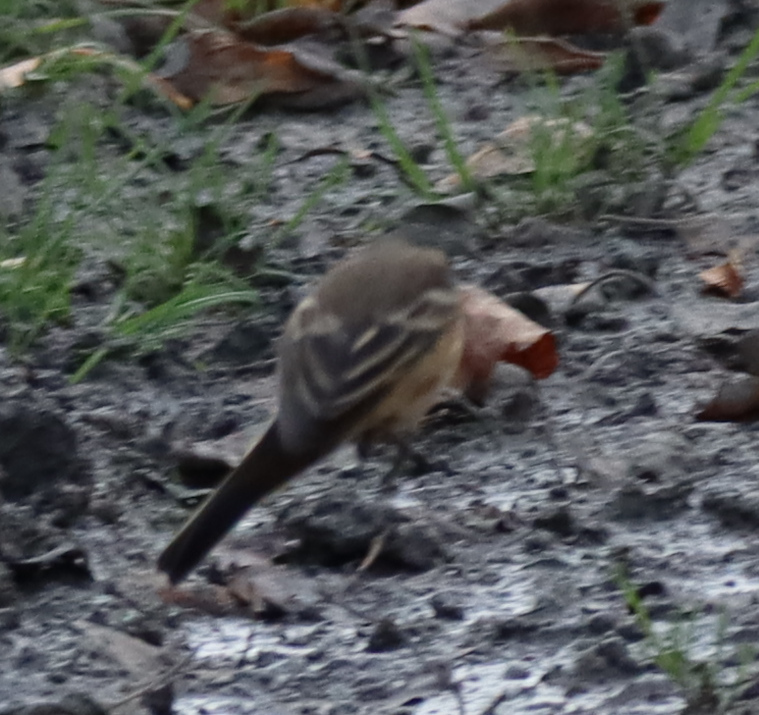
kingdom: Animalia
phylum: Chordata
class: Aves
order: Passeriformes
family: Motacillidae
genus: Anthus
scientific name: Anthus rubescens
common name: Buff-bellied pipit
